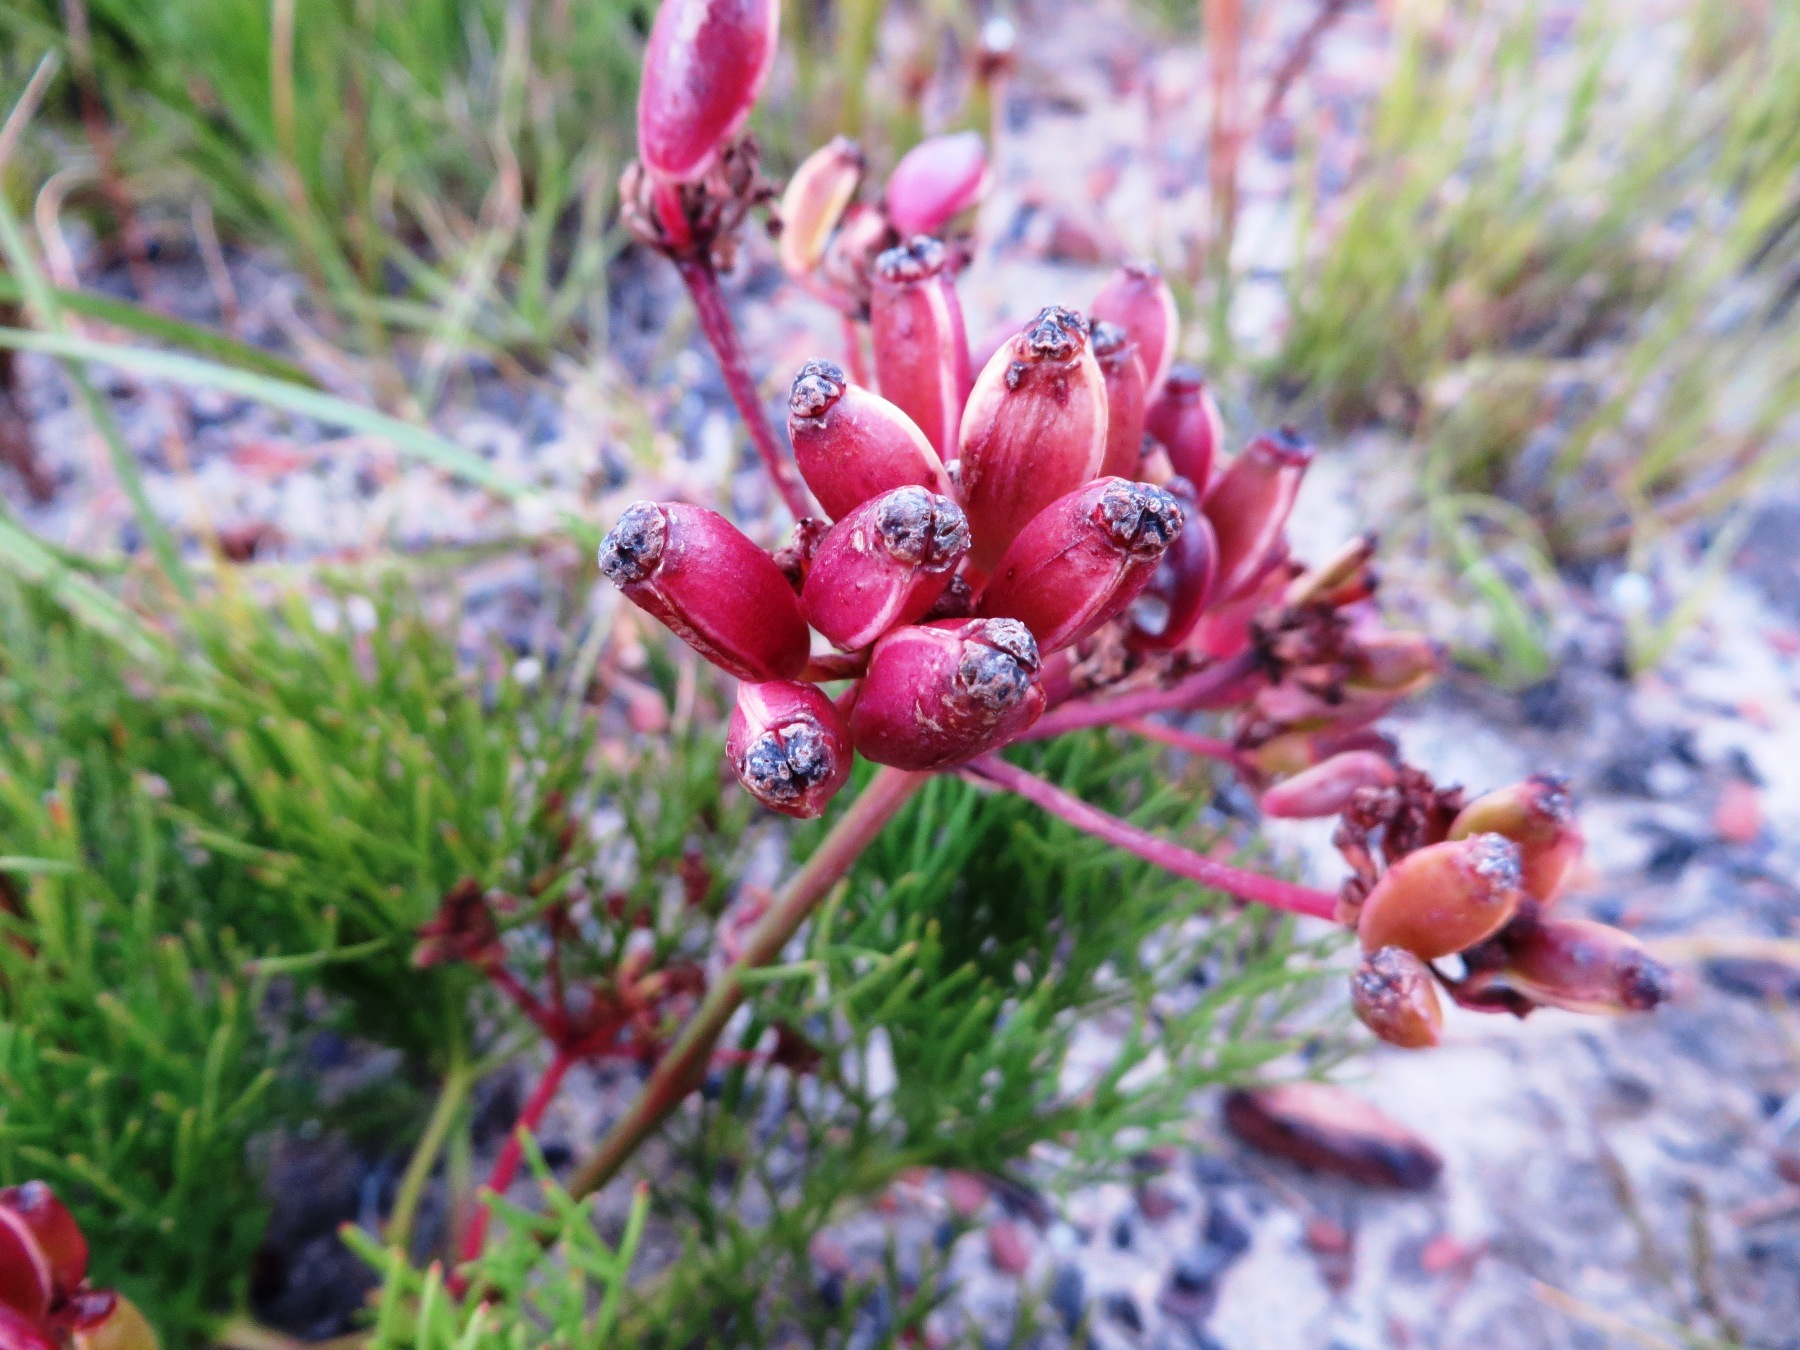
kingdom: Plantae
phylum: Tracheophyta
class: Magnoliopsida
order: Apiales
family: Apiaceae
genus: Nanobubon
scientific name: Nanobubon strictum
